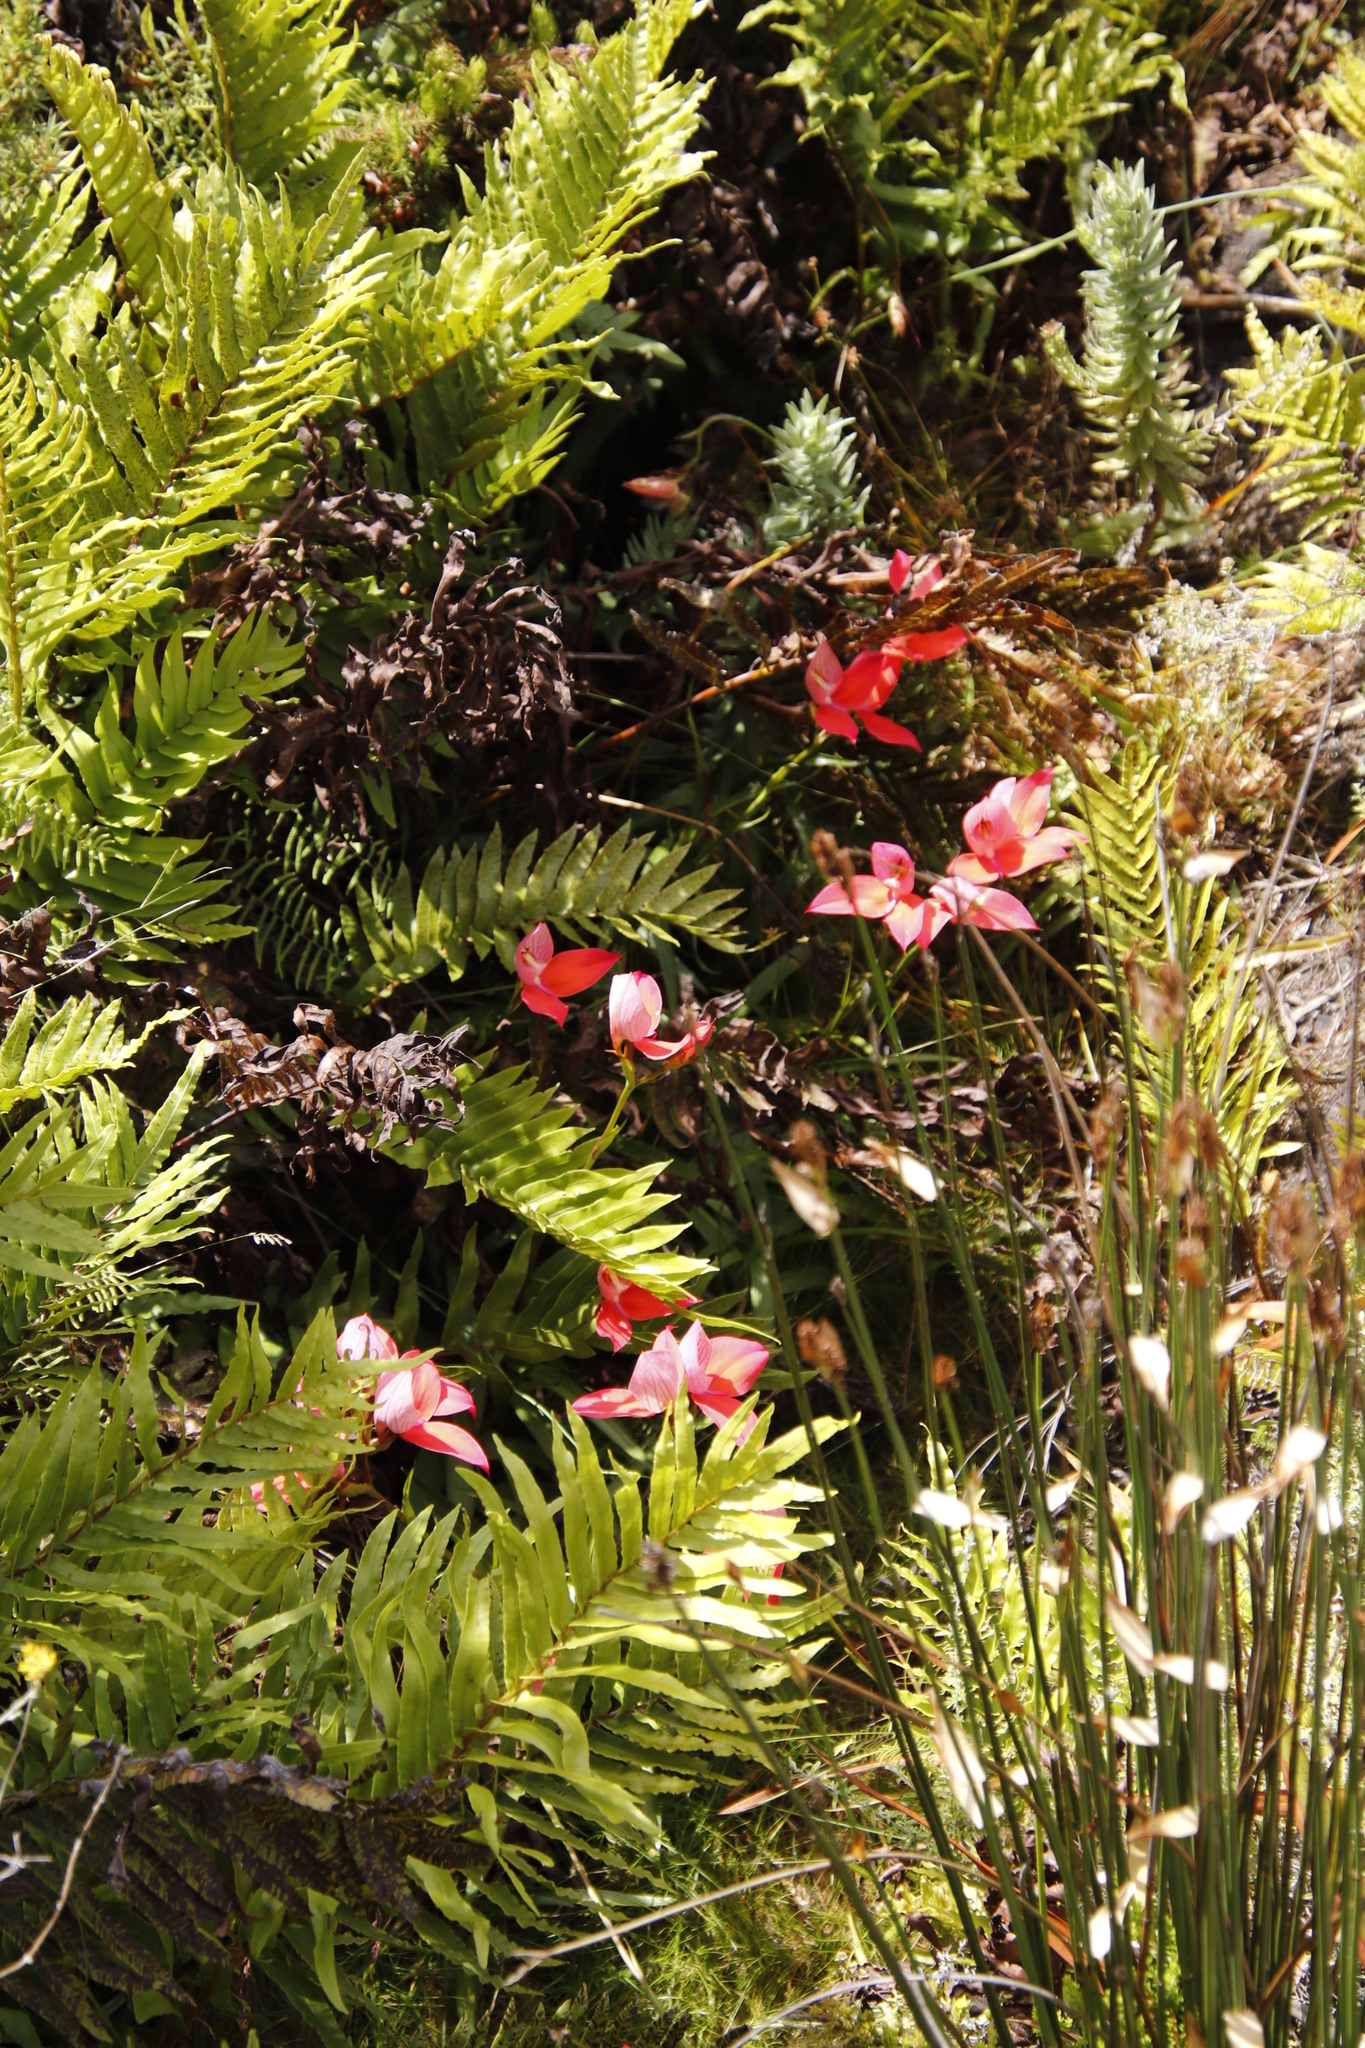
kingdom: Plantae
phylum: Tracheophyta
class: Liliopsida
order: Asparagales
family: Orchidaceae
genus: Disa
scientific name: Disa uniflora
